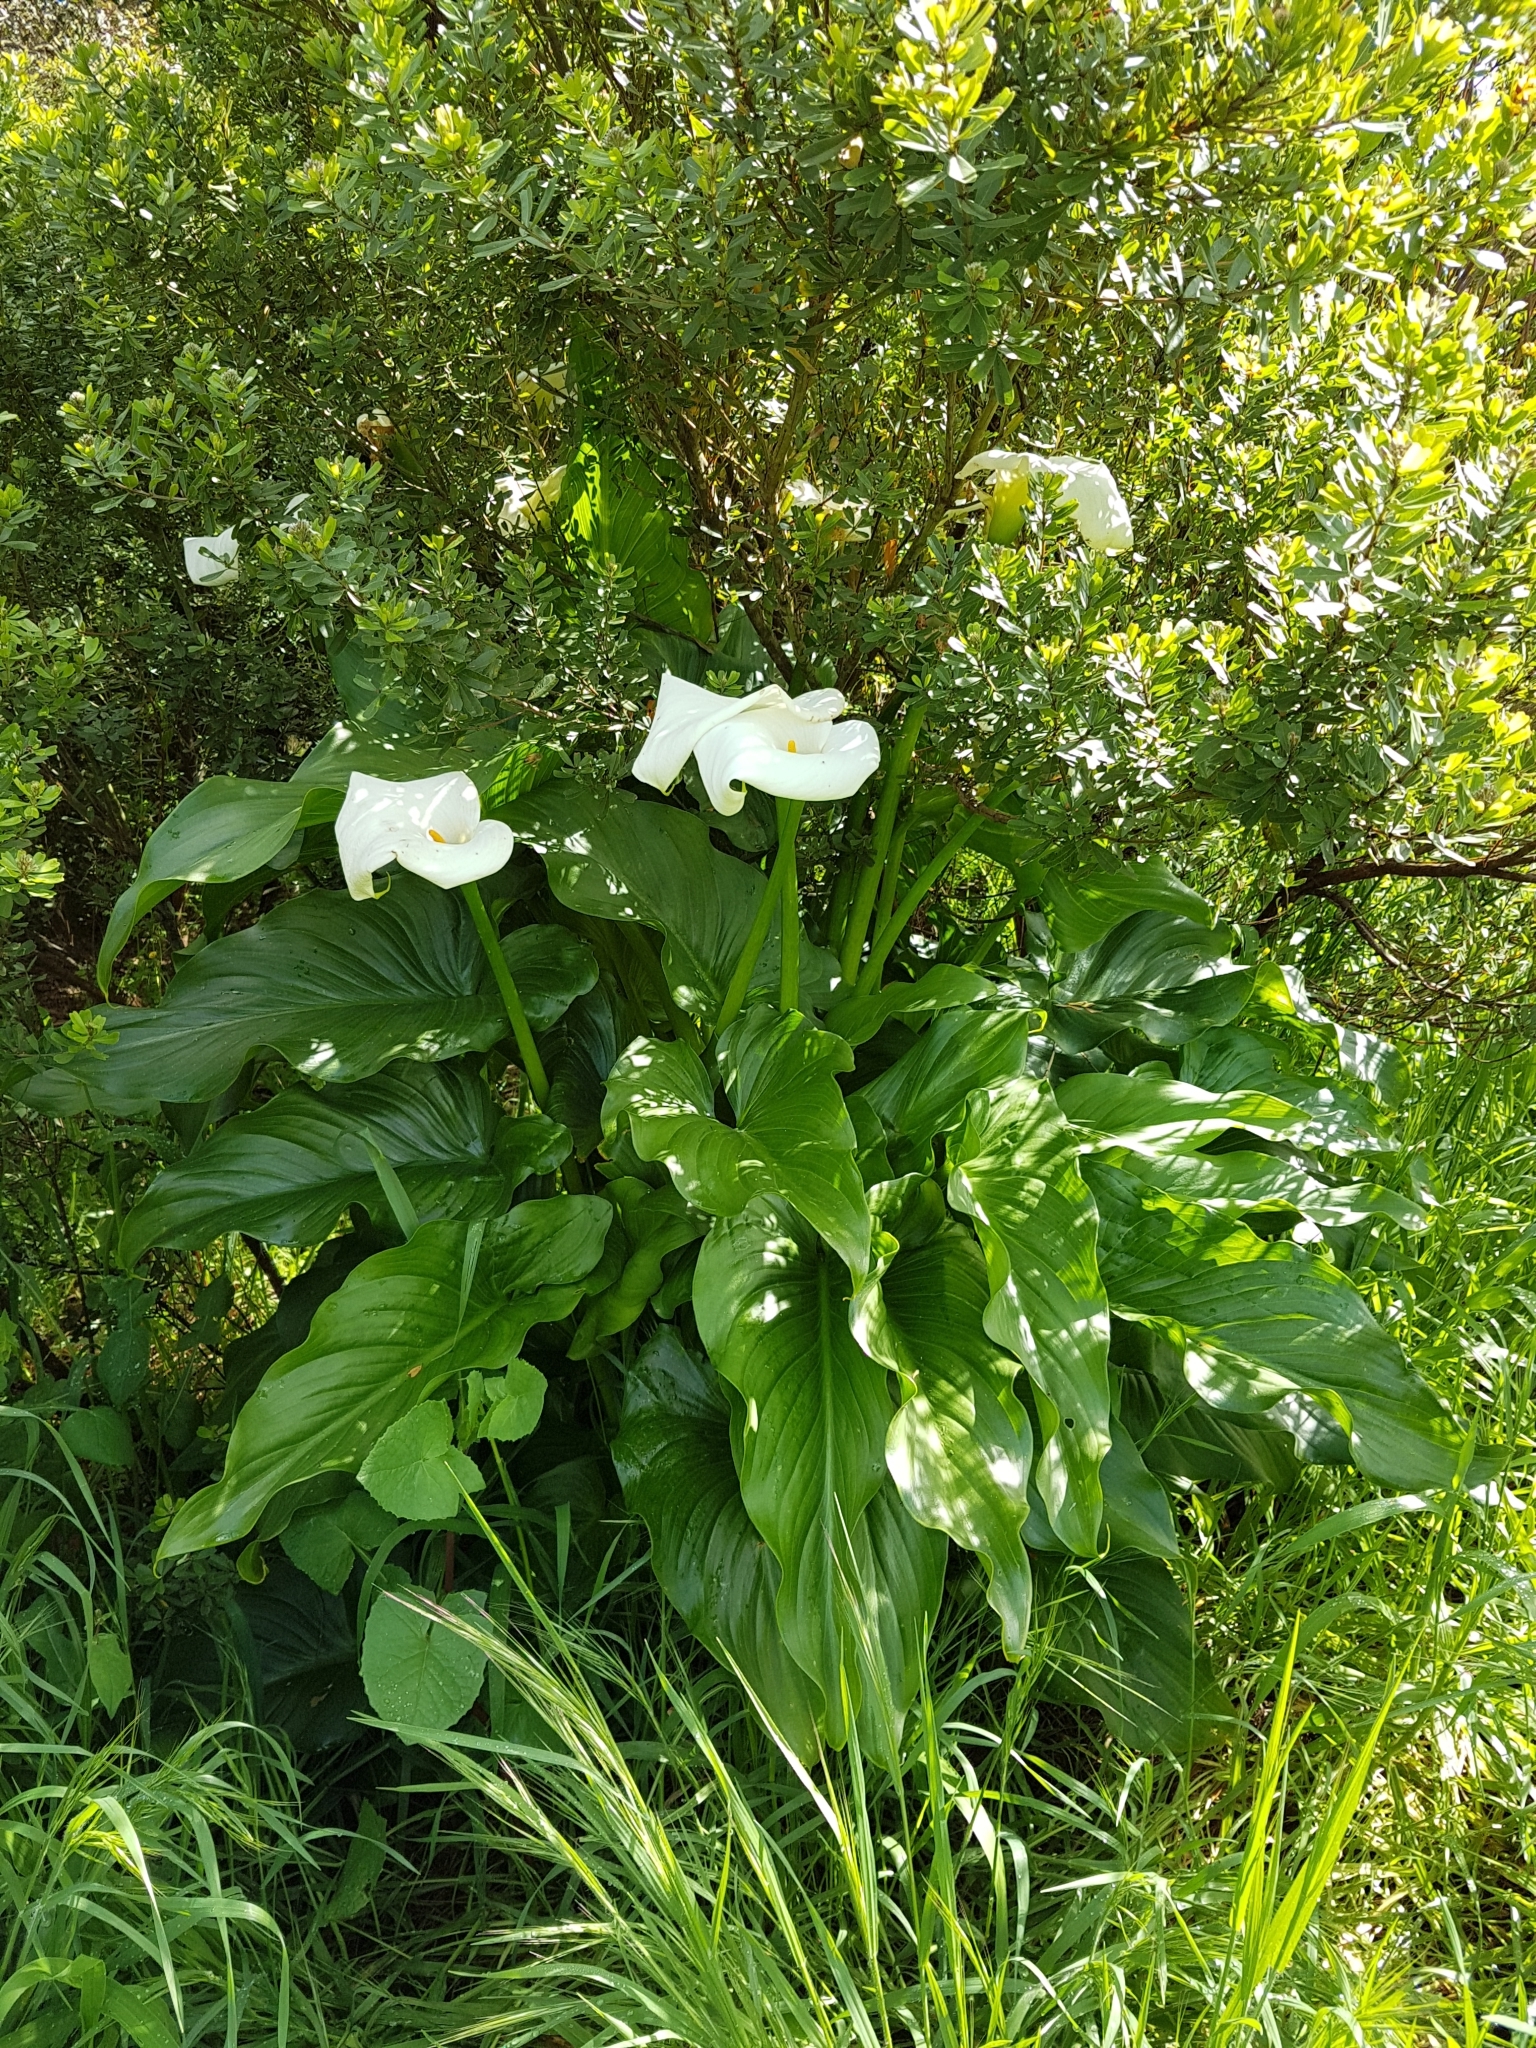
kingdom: Plantae
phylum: Tracheophyta
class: Liliopsida
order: Alismatales
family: Araceae
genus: Zantedeschia
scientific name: Zantedeschia aethiopica
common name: Altar-lily
